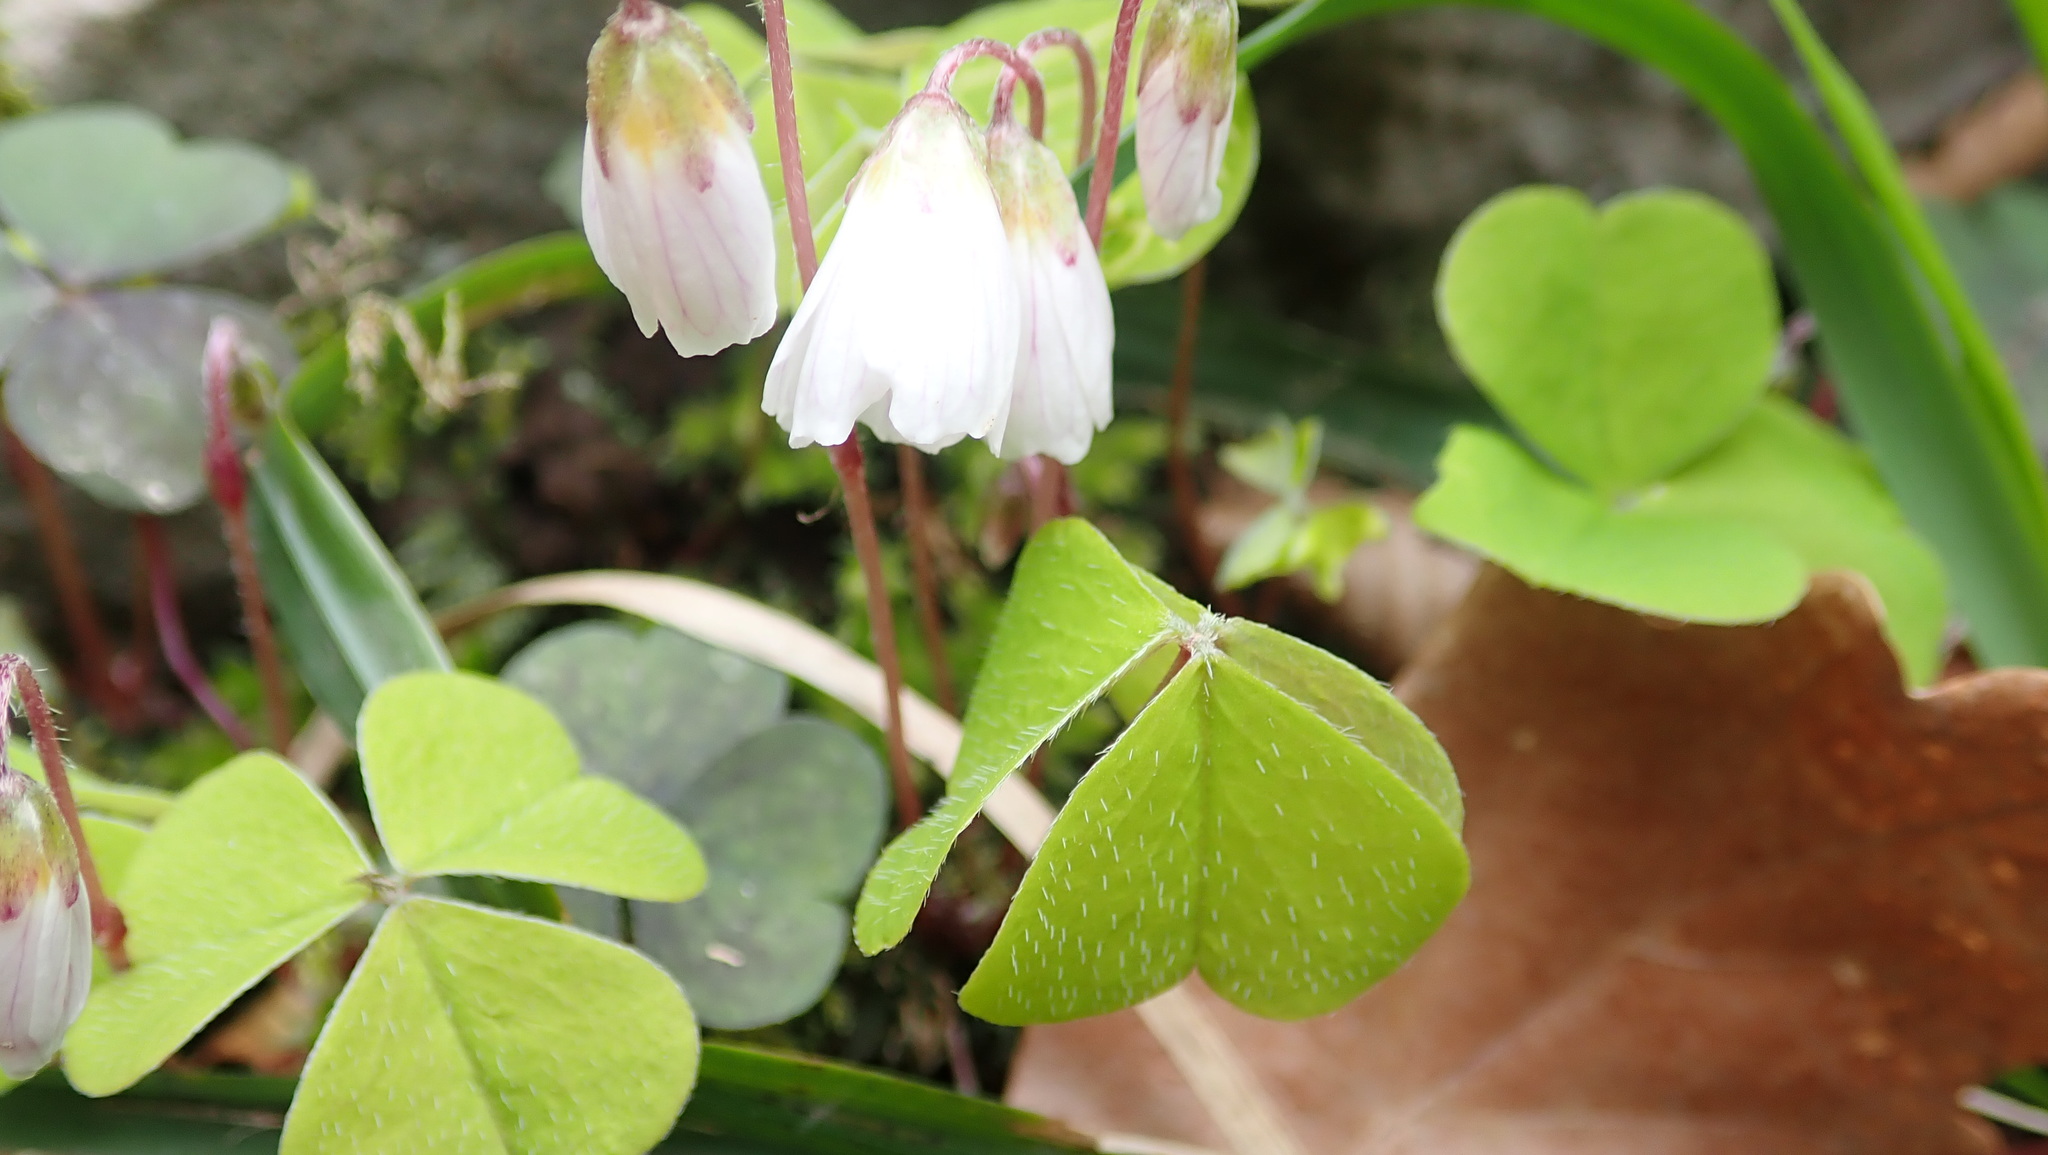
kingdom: Plantae
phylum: Tracheophyta
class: Magnoliopsida
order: Oxalidales
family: Oxalidaceae
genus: Oxalis
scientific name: Oxalis acetosella
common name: Wood-sorrel
